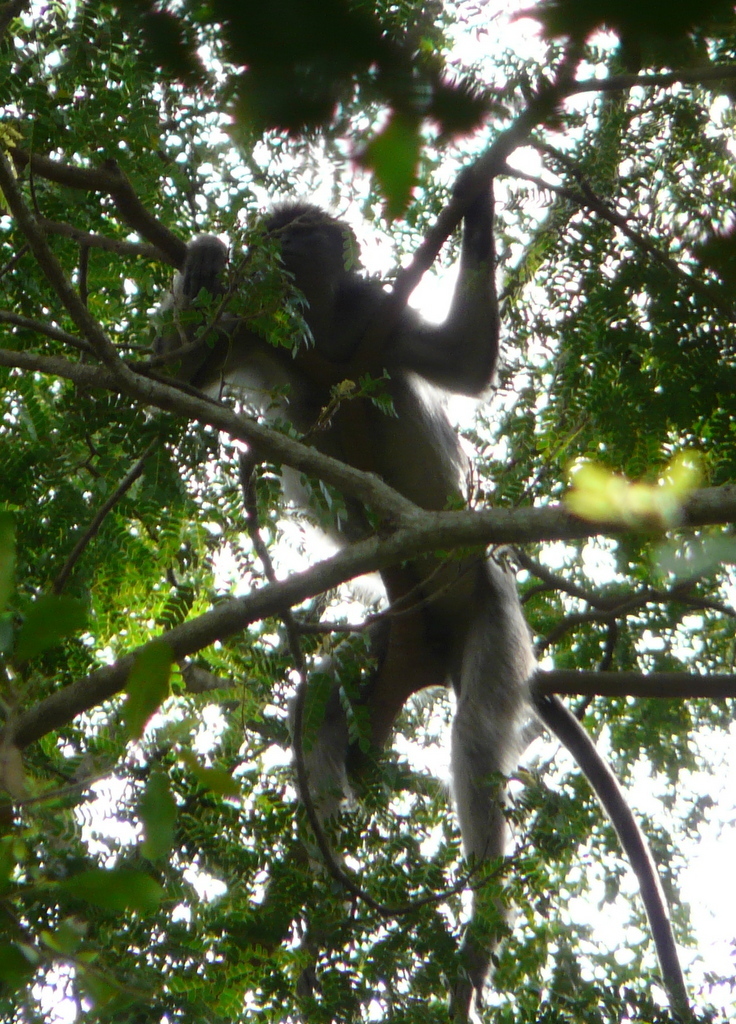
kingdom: Animalia
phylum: Chordata
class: Mammalia
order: Primates
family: Cercopithecidae
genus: Piliocolobus
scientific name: Piliocolobus rufomitratus
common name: Tana river red colobus
